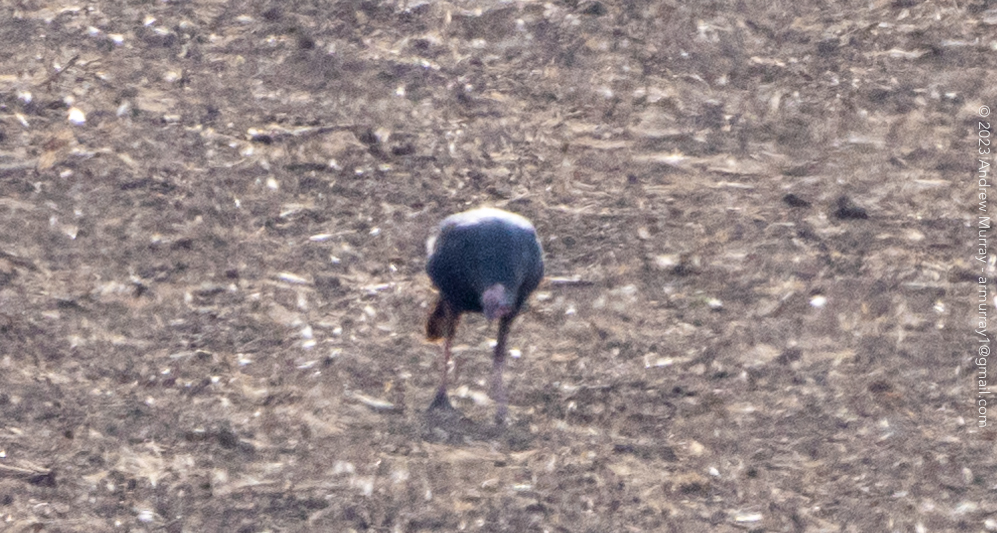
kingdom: Animalia
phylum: Chordata
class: Aves
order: Galliformes
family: Phasianidae
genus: Meleagris
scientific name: Meleagris gallopavo
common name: Wild turkey
